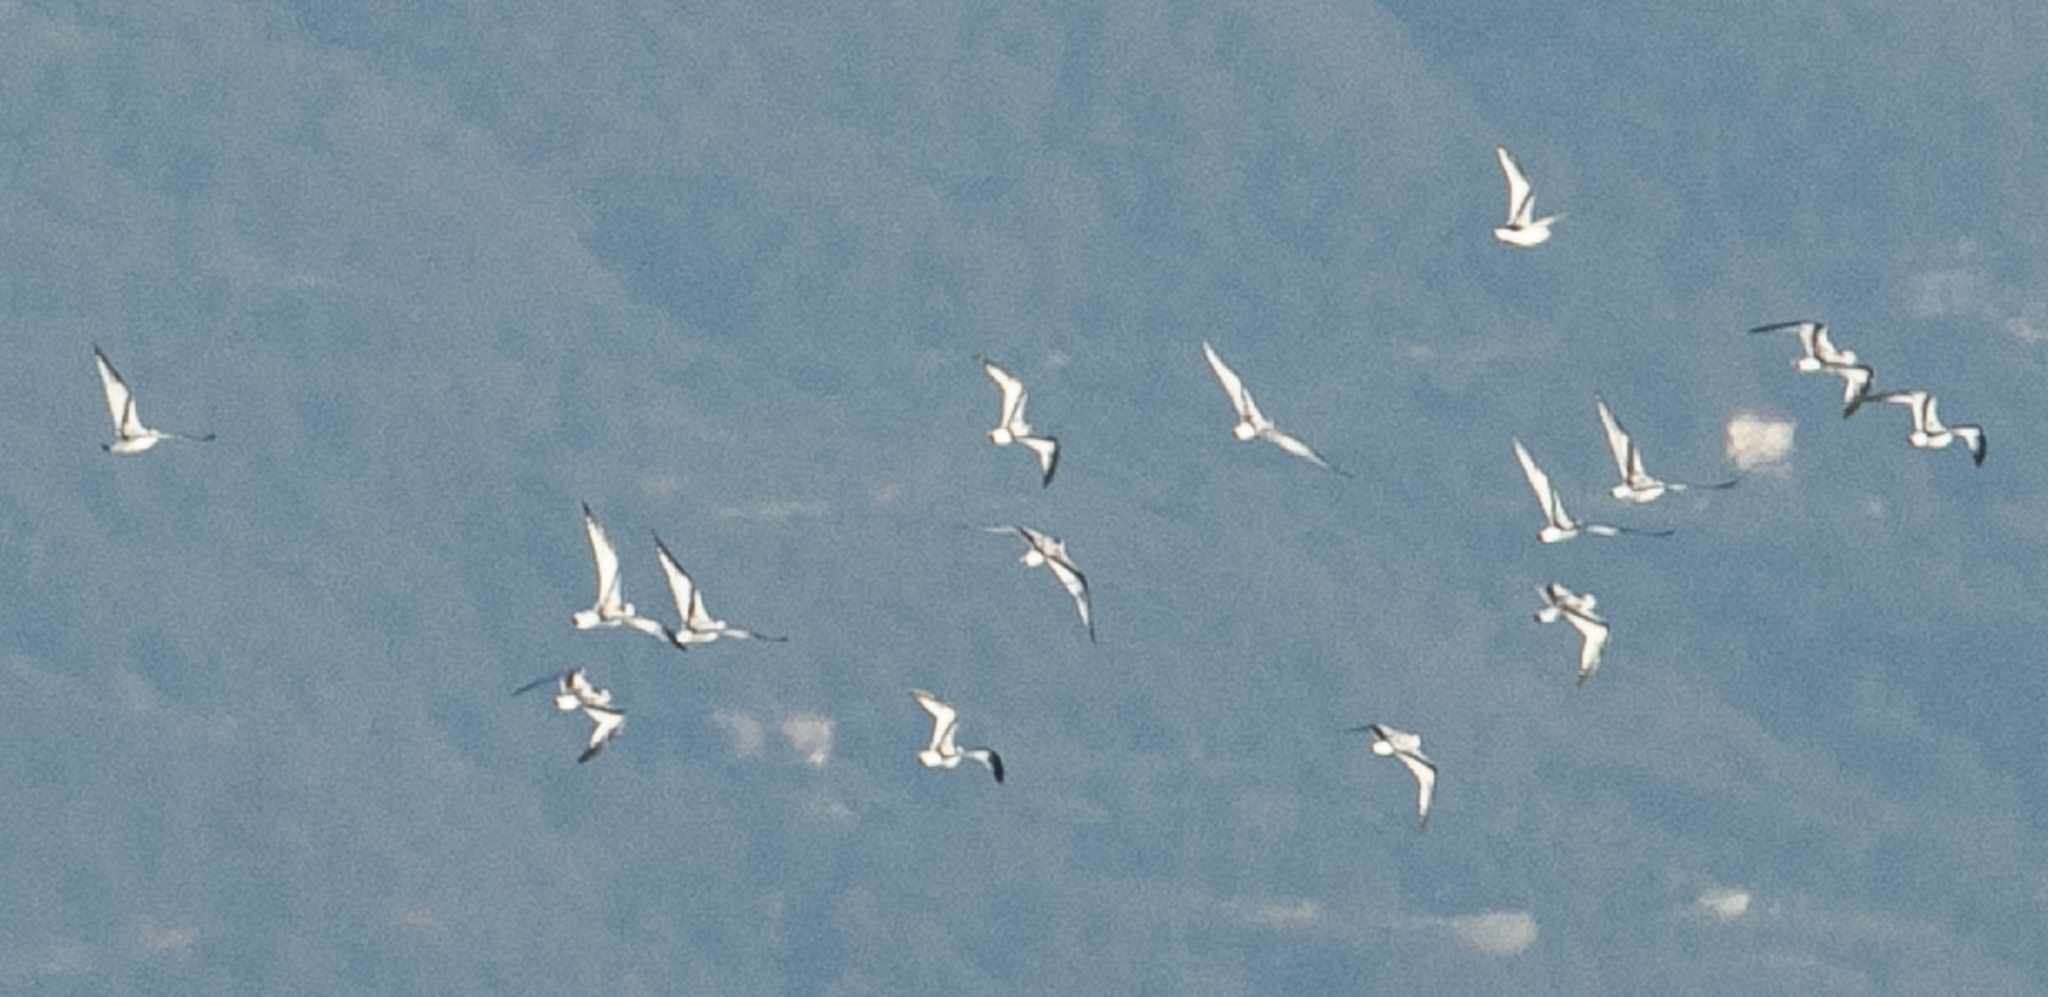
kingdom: Animalia
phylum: Chordata
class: Aves
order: Charadriiformes
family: Laridae
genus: Hydrocoloeus
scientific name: Hydrocoloeus minutus
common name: Little gull
